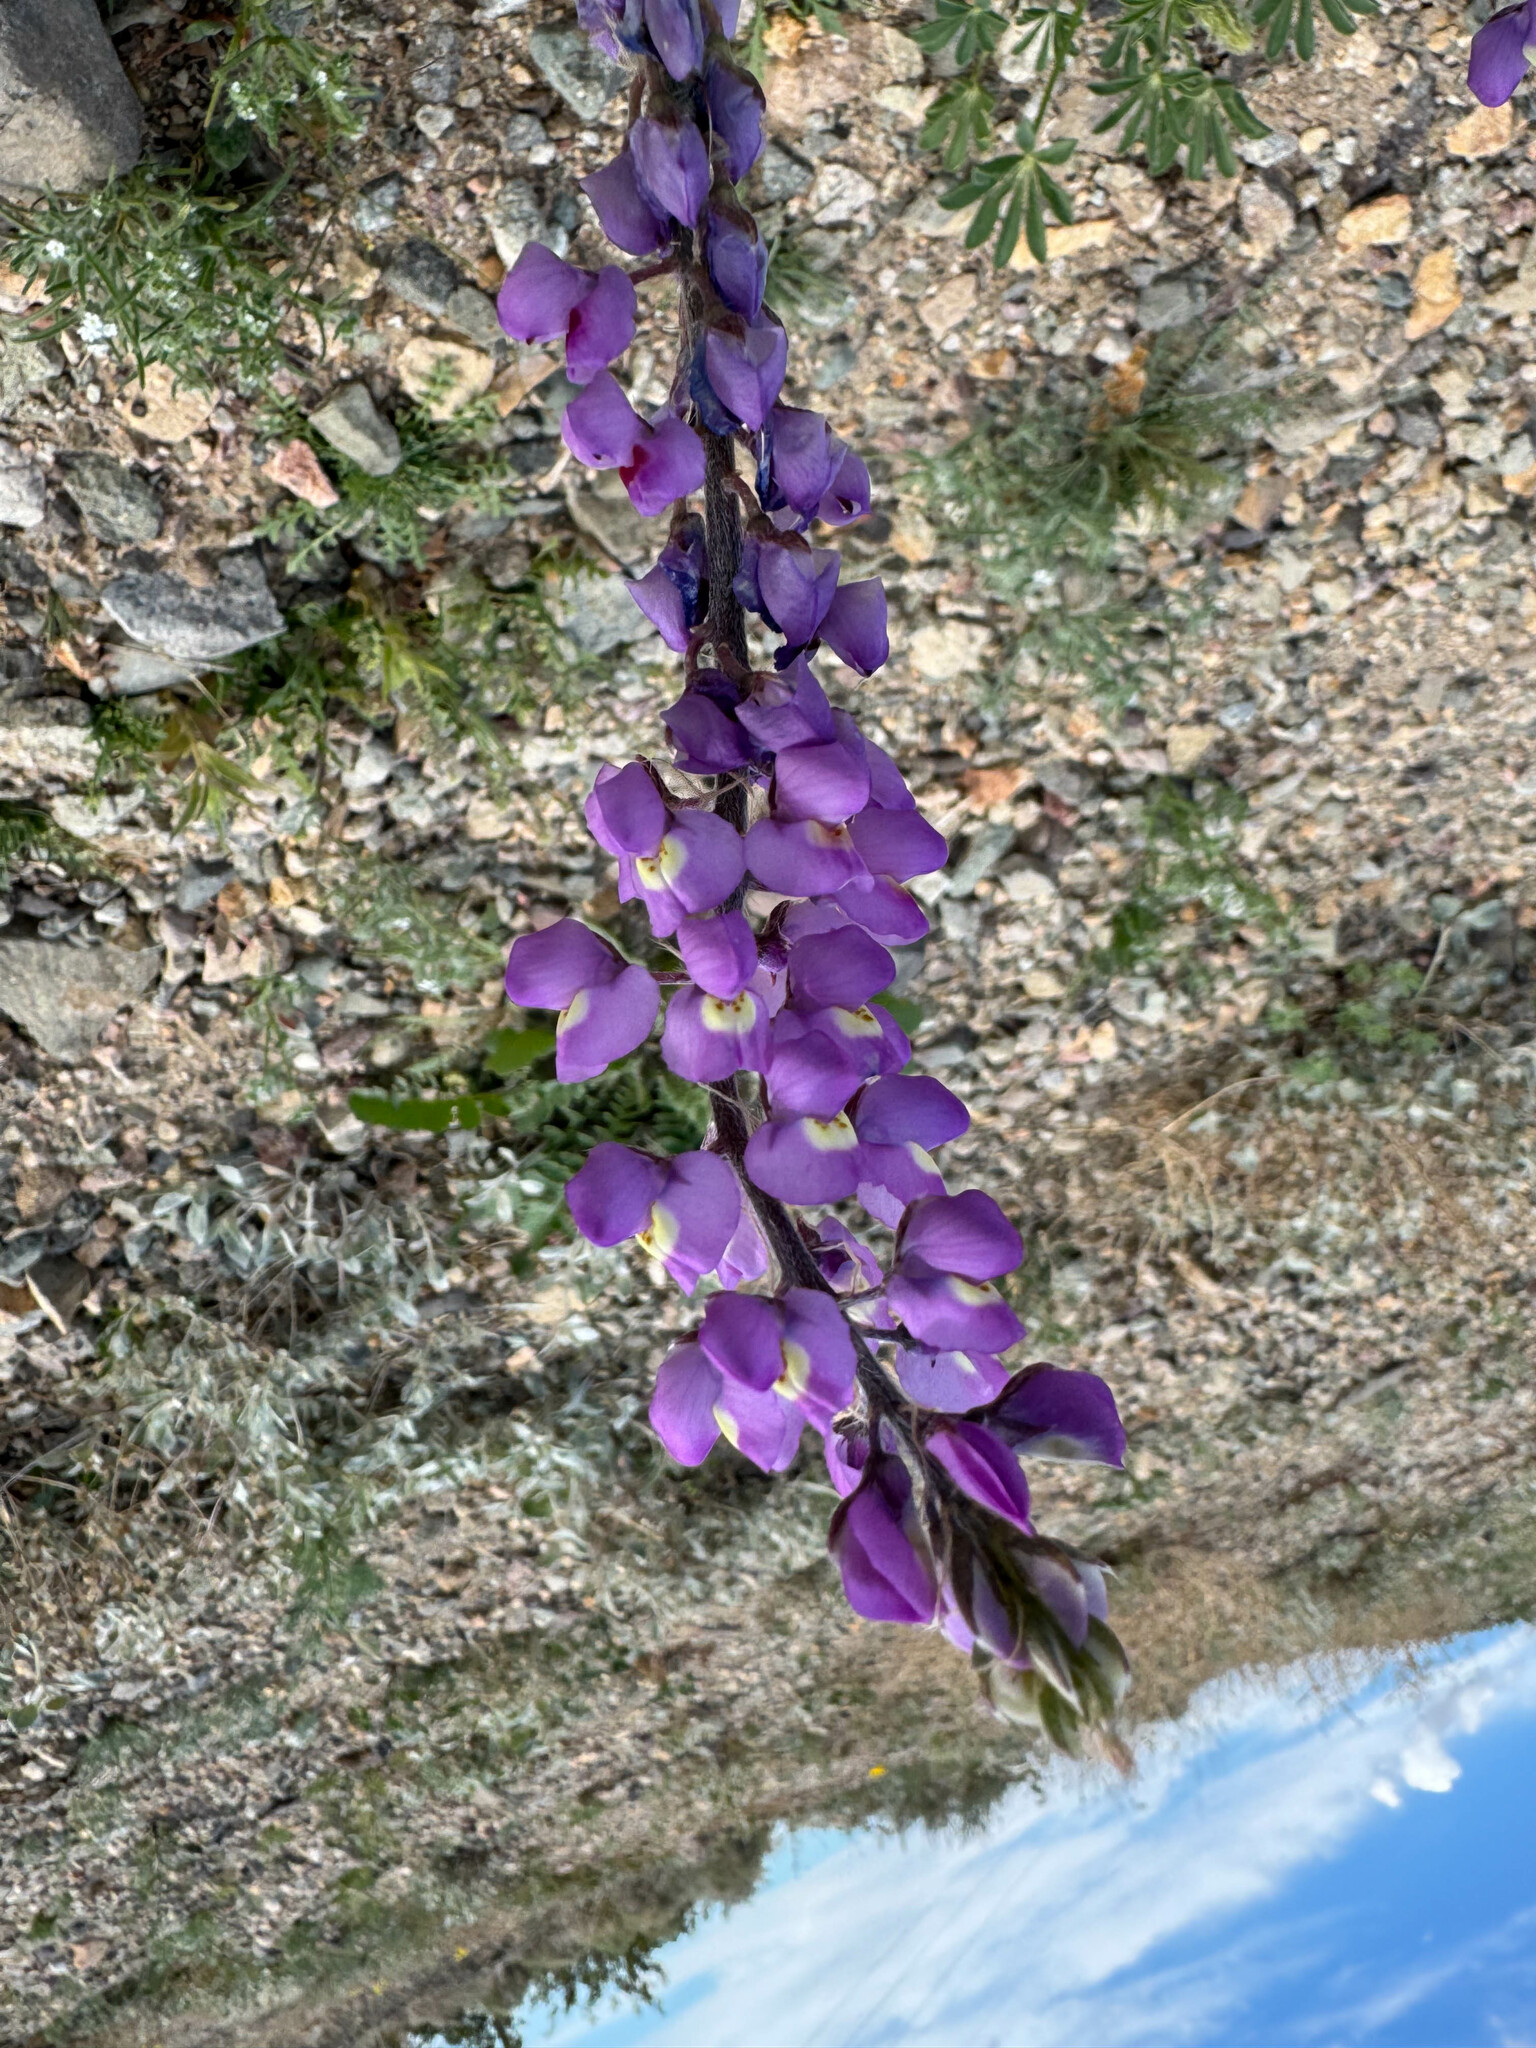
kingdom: Plantae
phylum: Tracheophyta
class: Magnoliopsida
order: Fabales
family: Fabaceae
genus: Lupinus
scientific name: Lupinus arizonicus
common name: Arizona lupine
